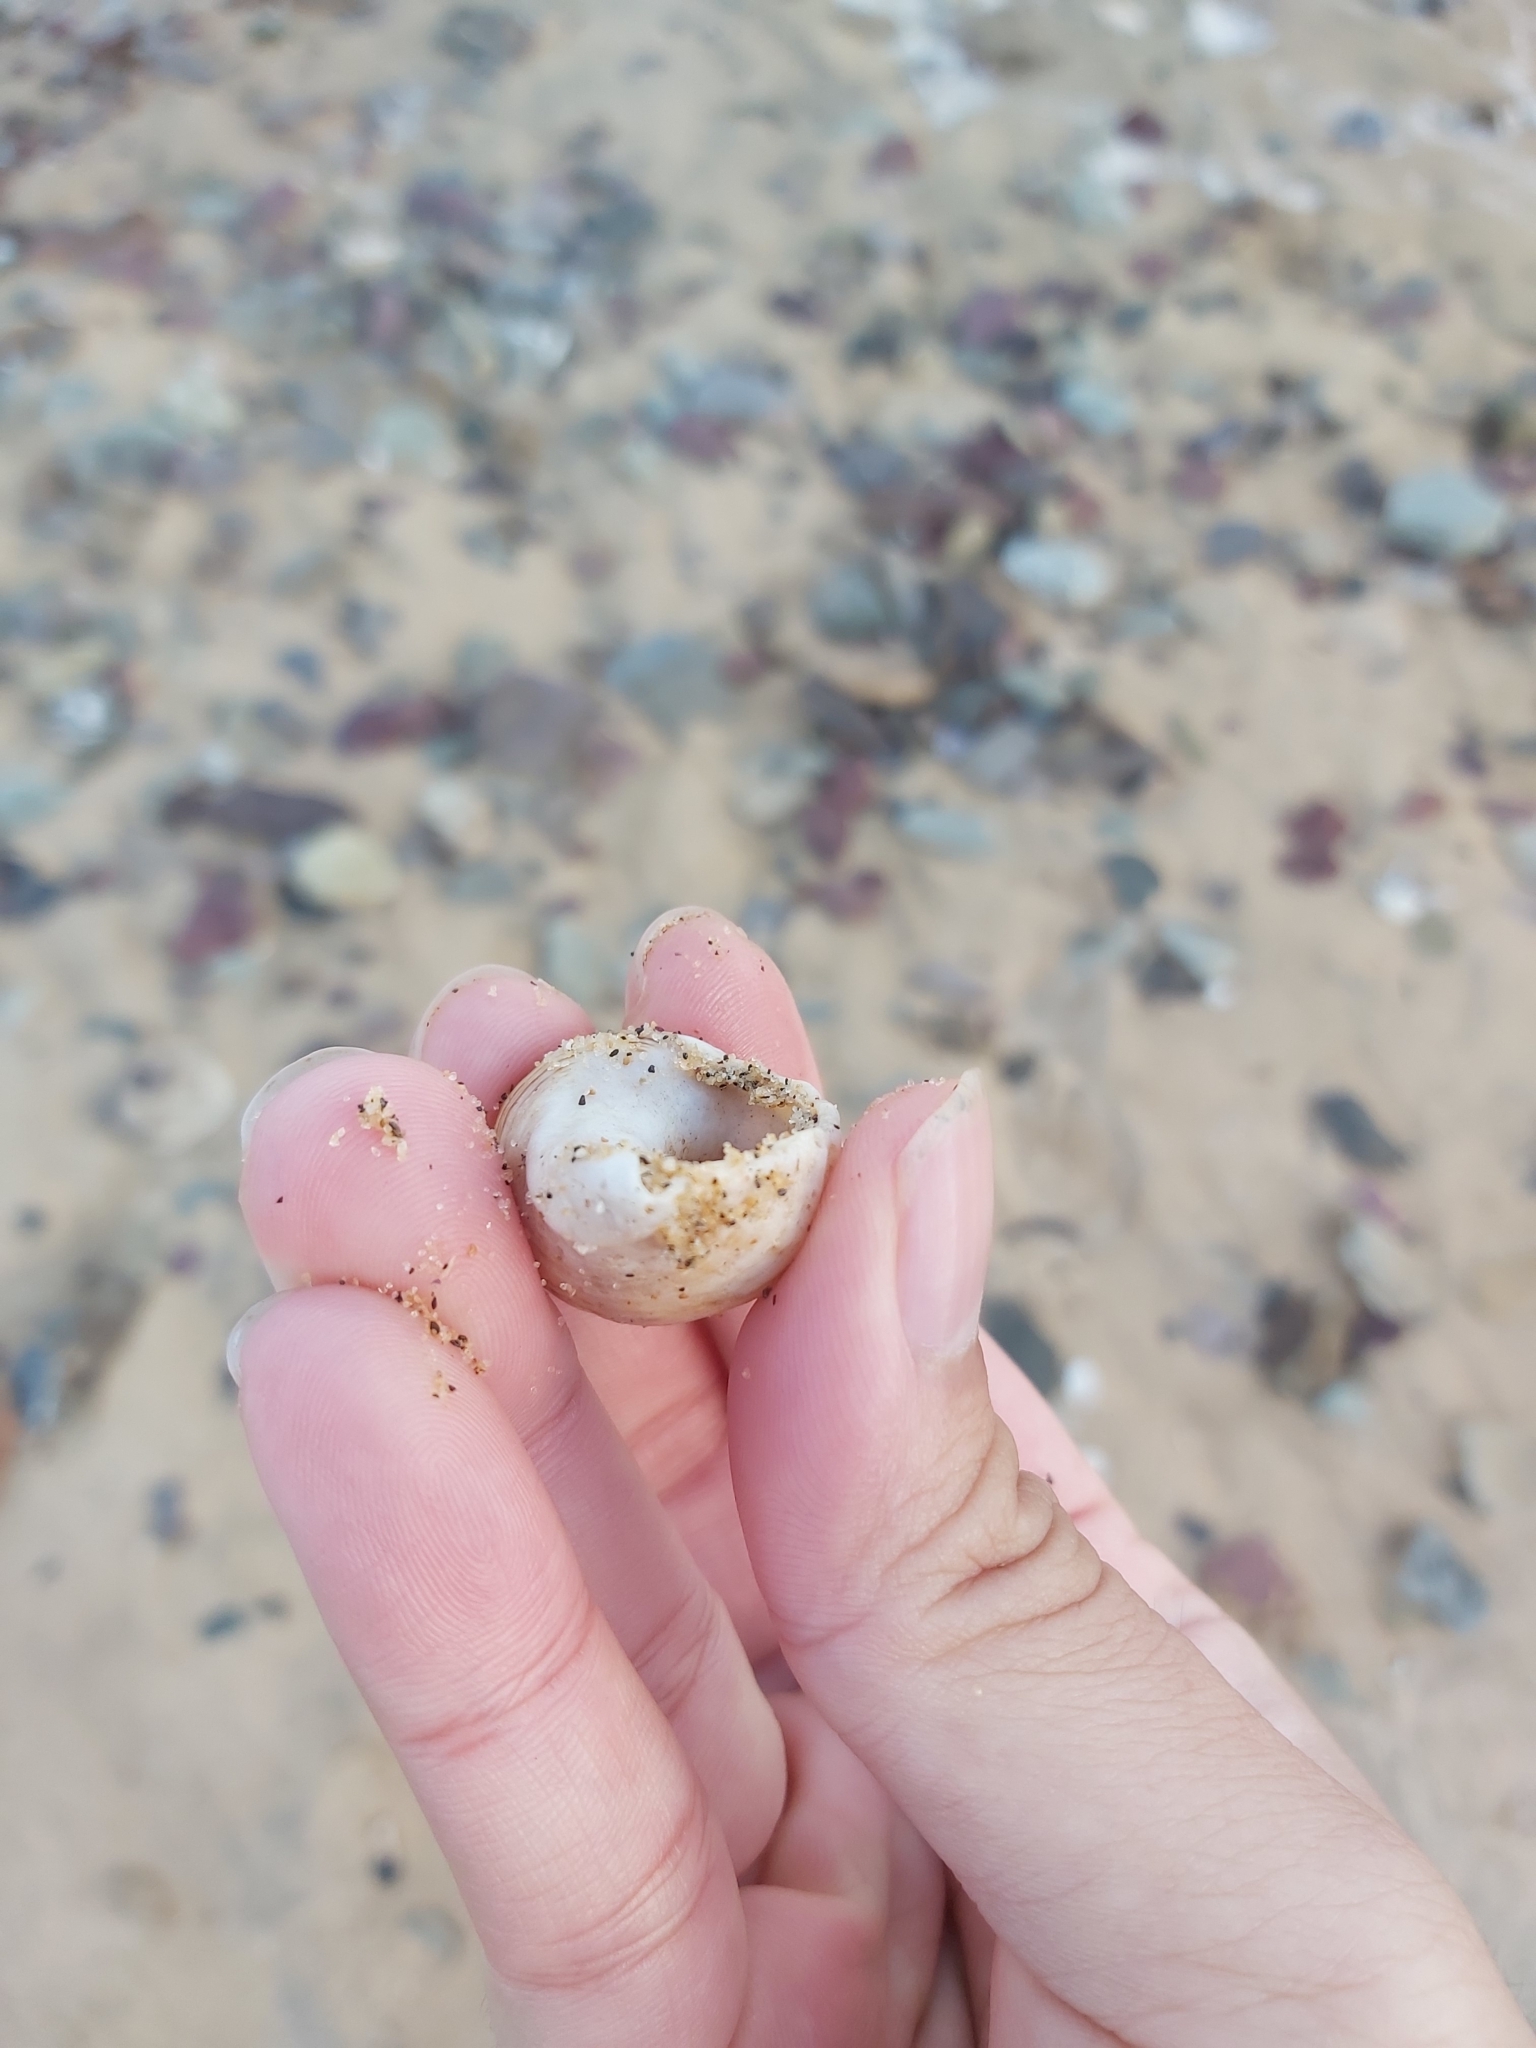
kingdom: Animalia
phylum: Mollusca
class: Gastropoda
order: Neogastropoda
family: Muricidae
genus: Dicathais
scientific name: Dicathais orbita
